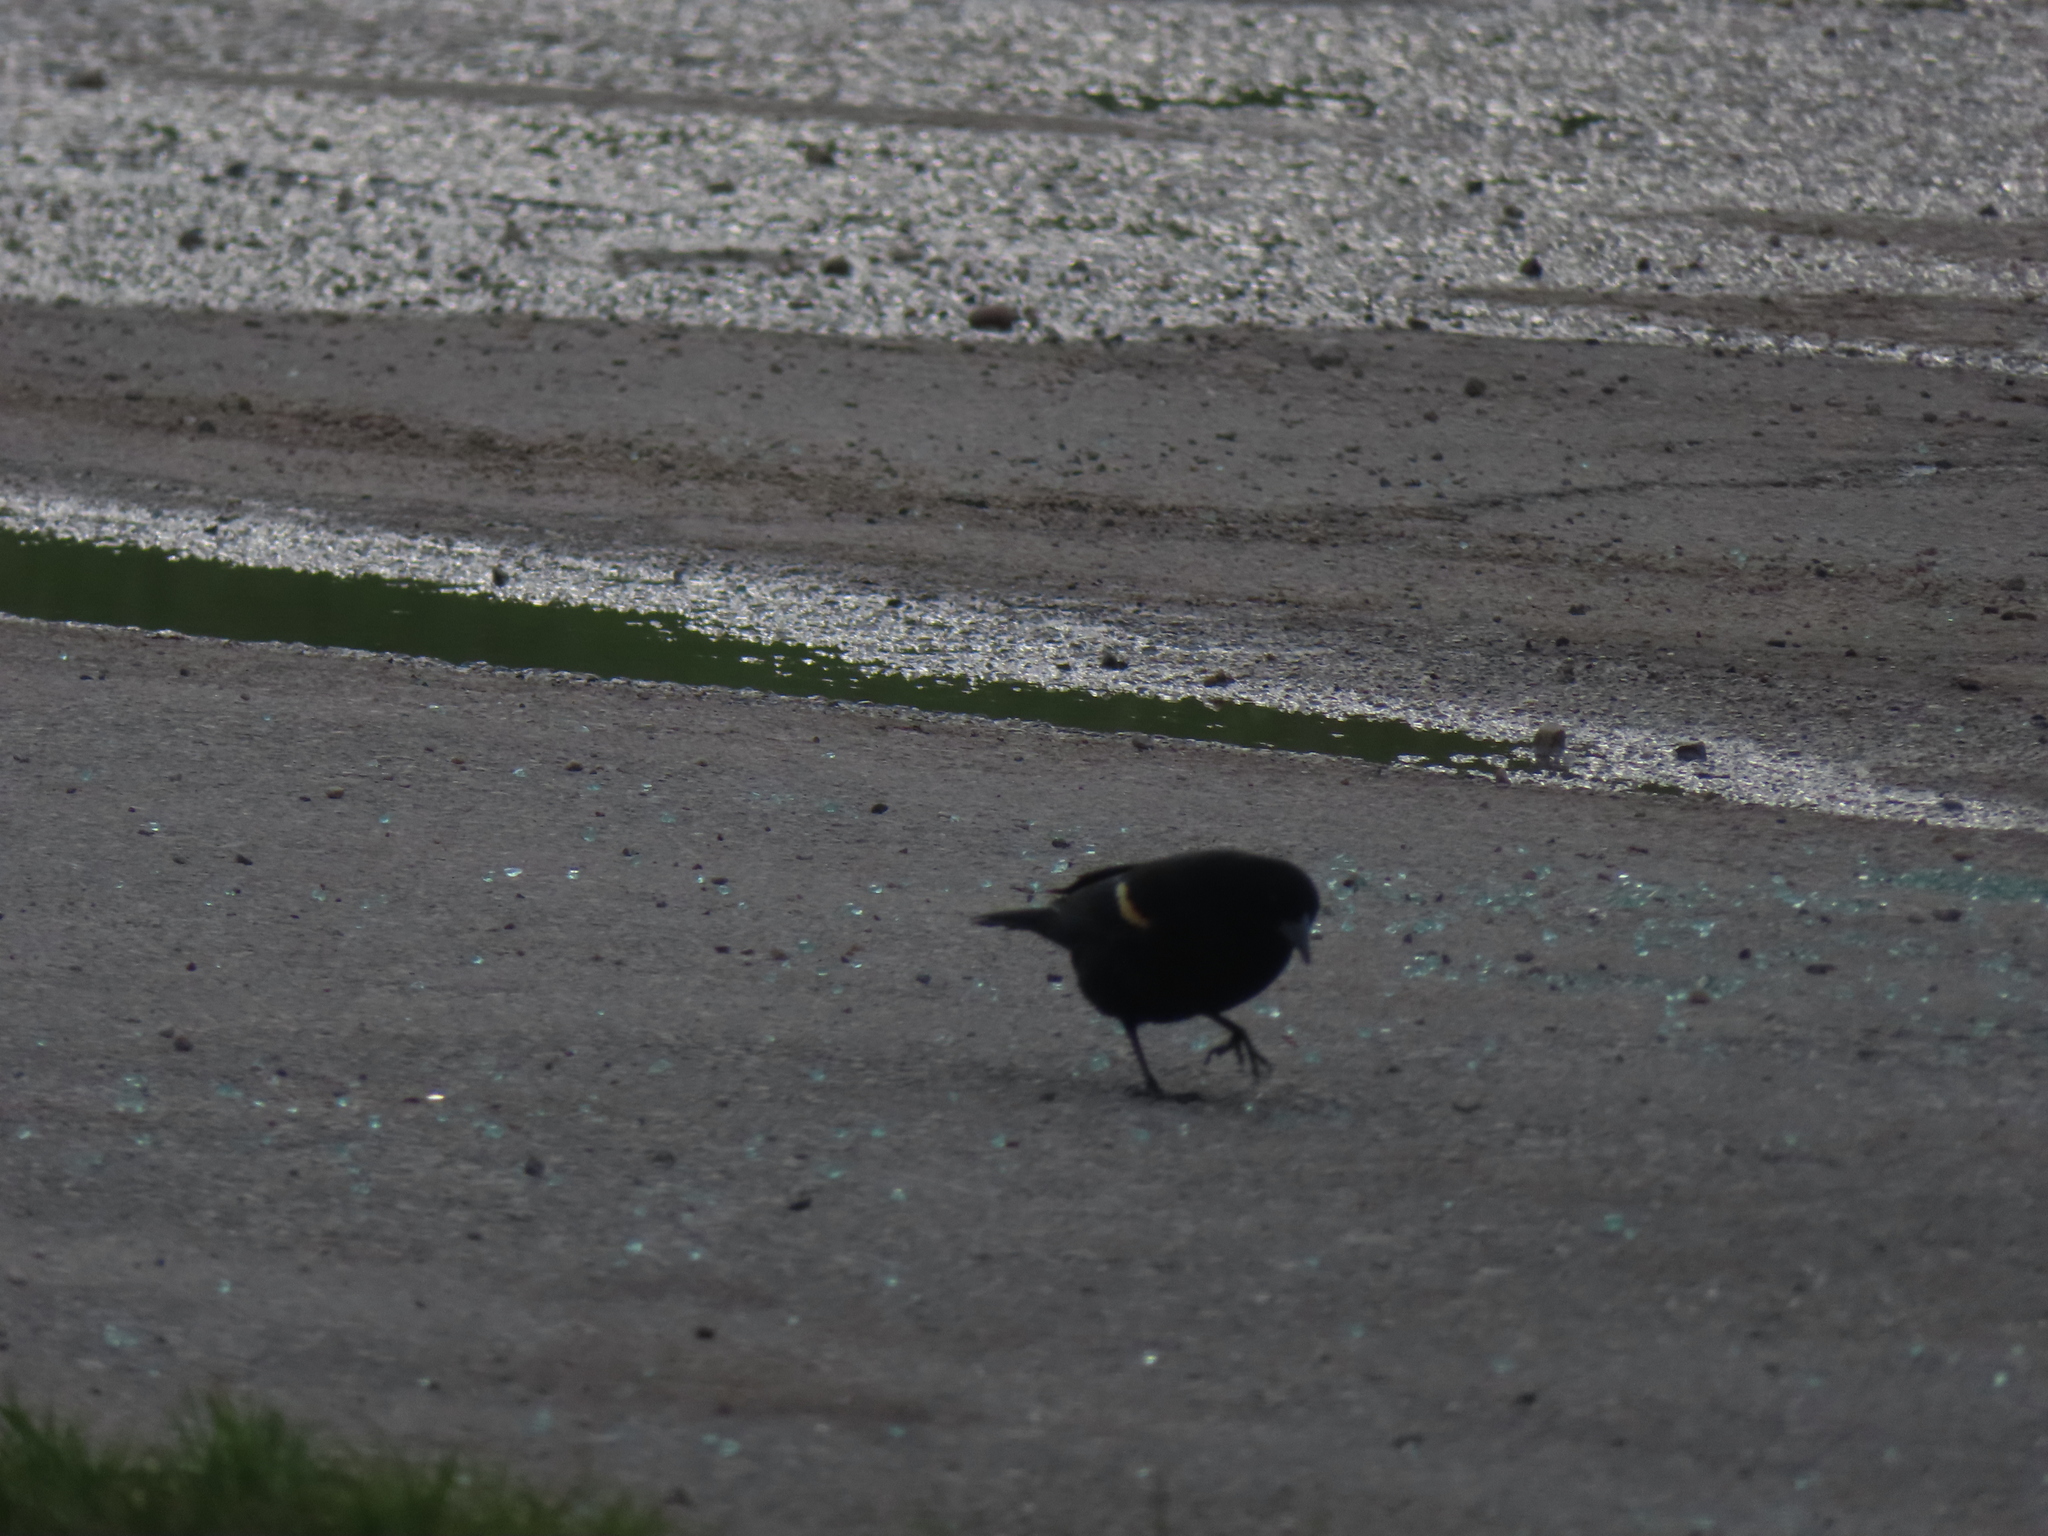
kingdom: Animalia
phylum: Chordata
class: Aves
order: Passeriformes
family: Icteridae
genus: Agelaius
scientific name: Agelaius phoeniceus
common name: Red-winged blackbird
